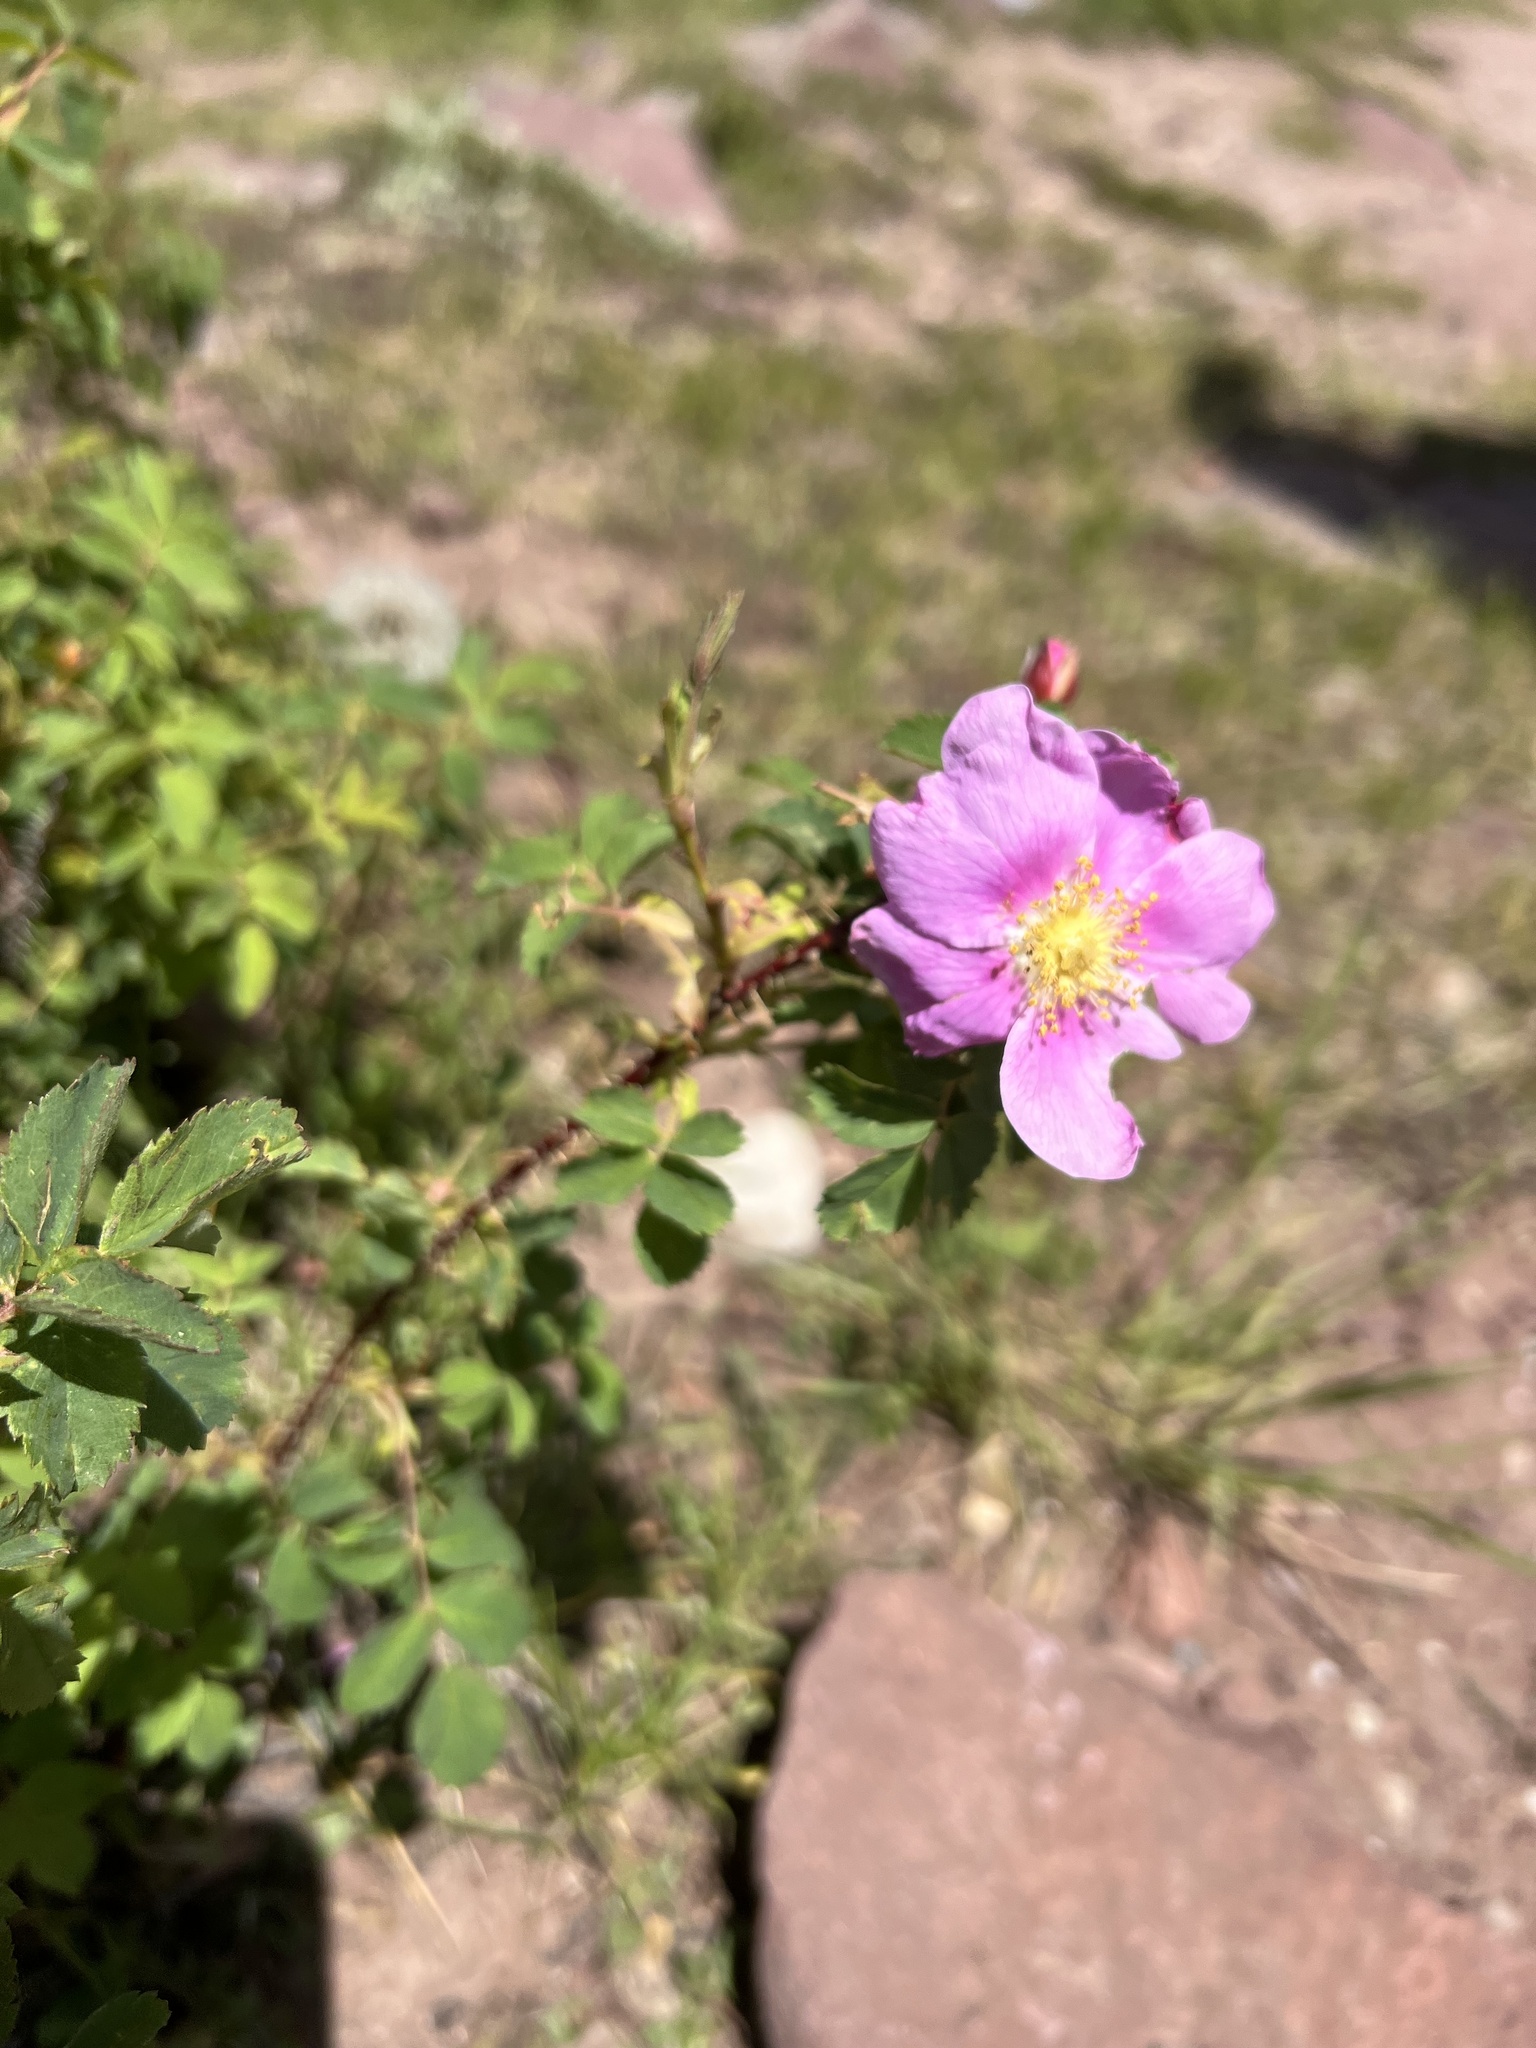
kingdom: Plantae
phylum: Tracheophyta
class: Magnoliopsida
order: Rosales
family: Rosaceae
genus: Rosa
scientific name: Rosa woodsii
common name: Woods's rose
